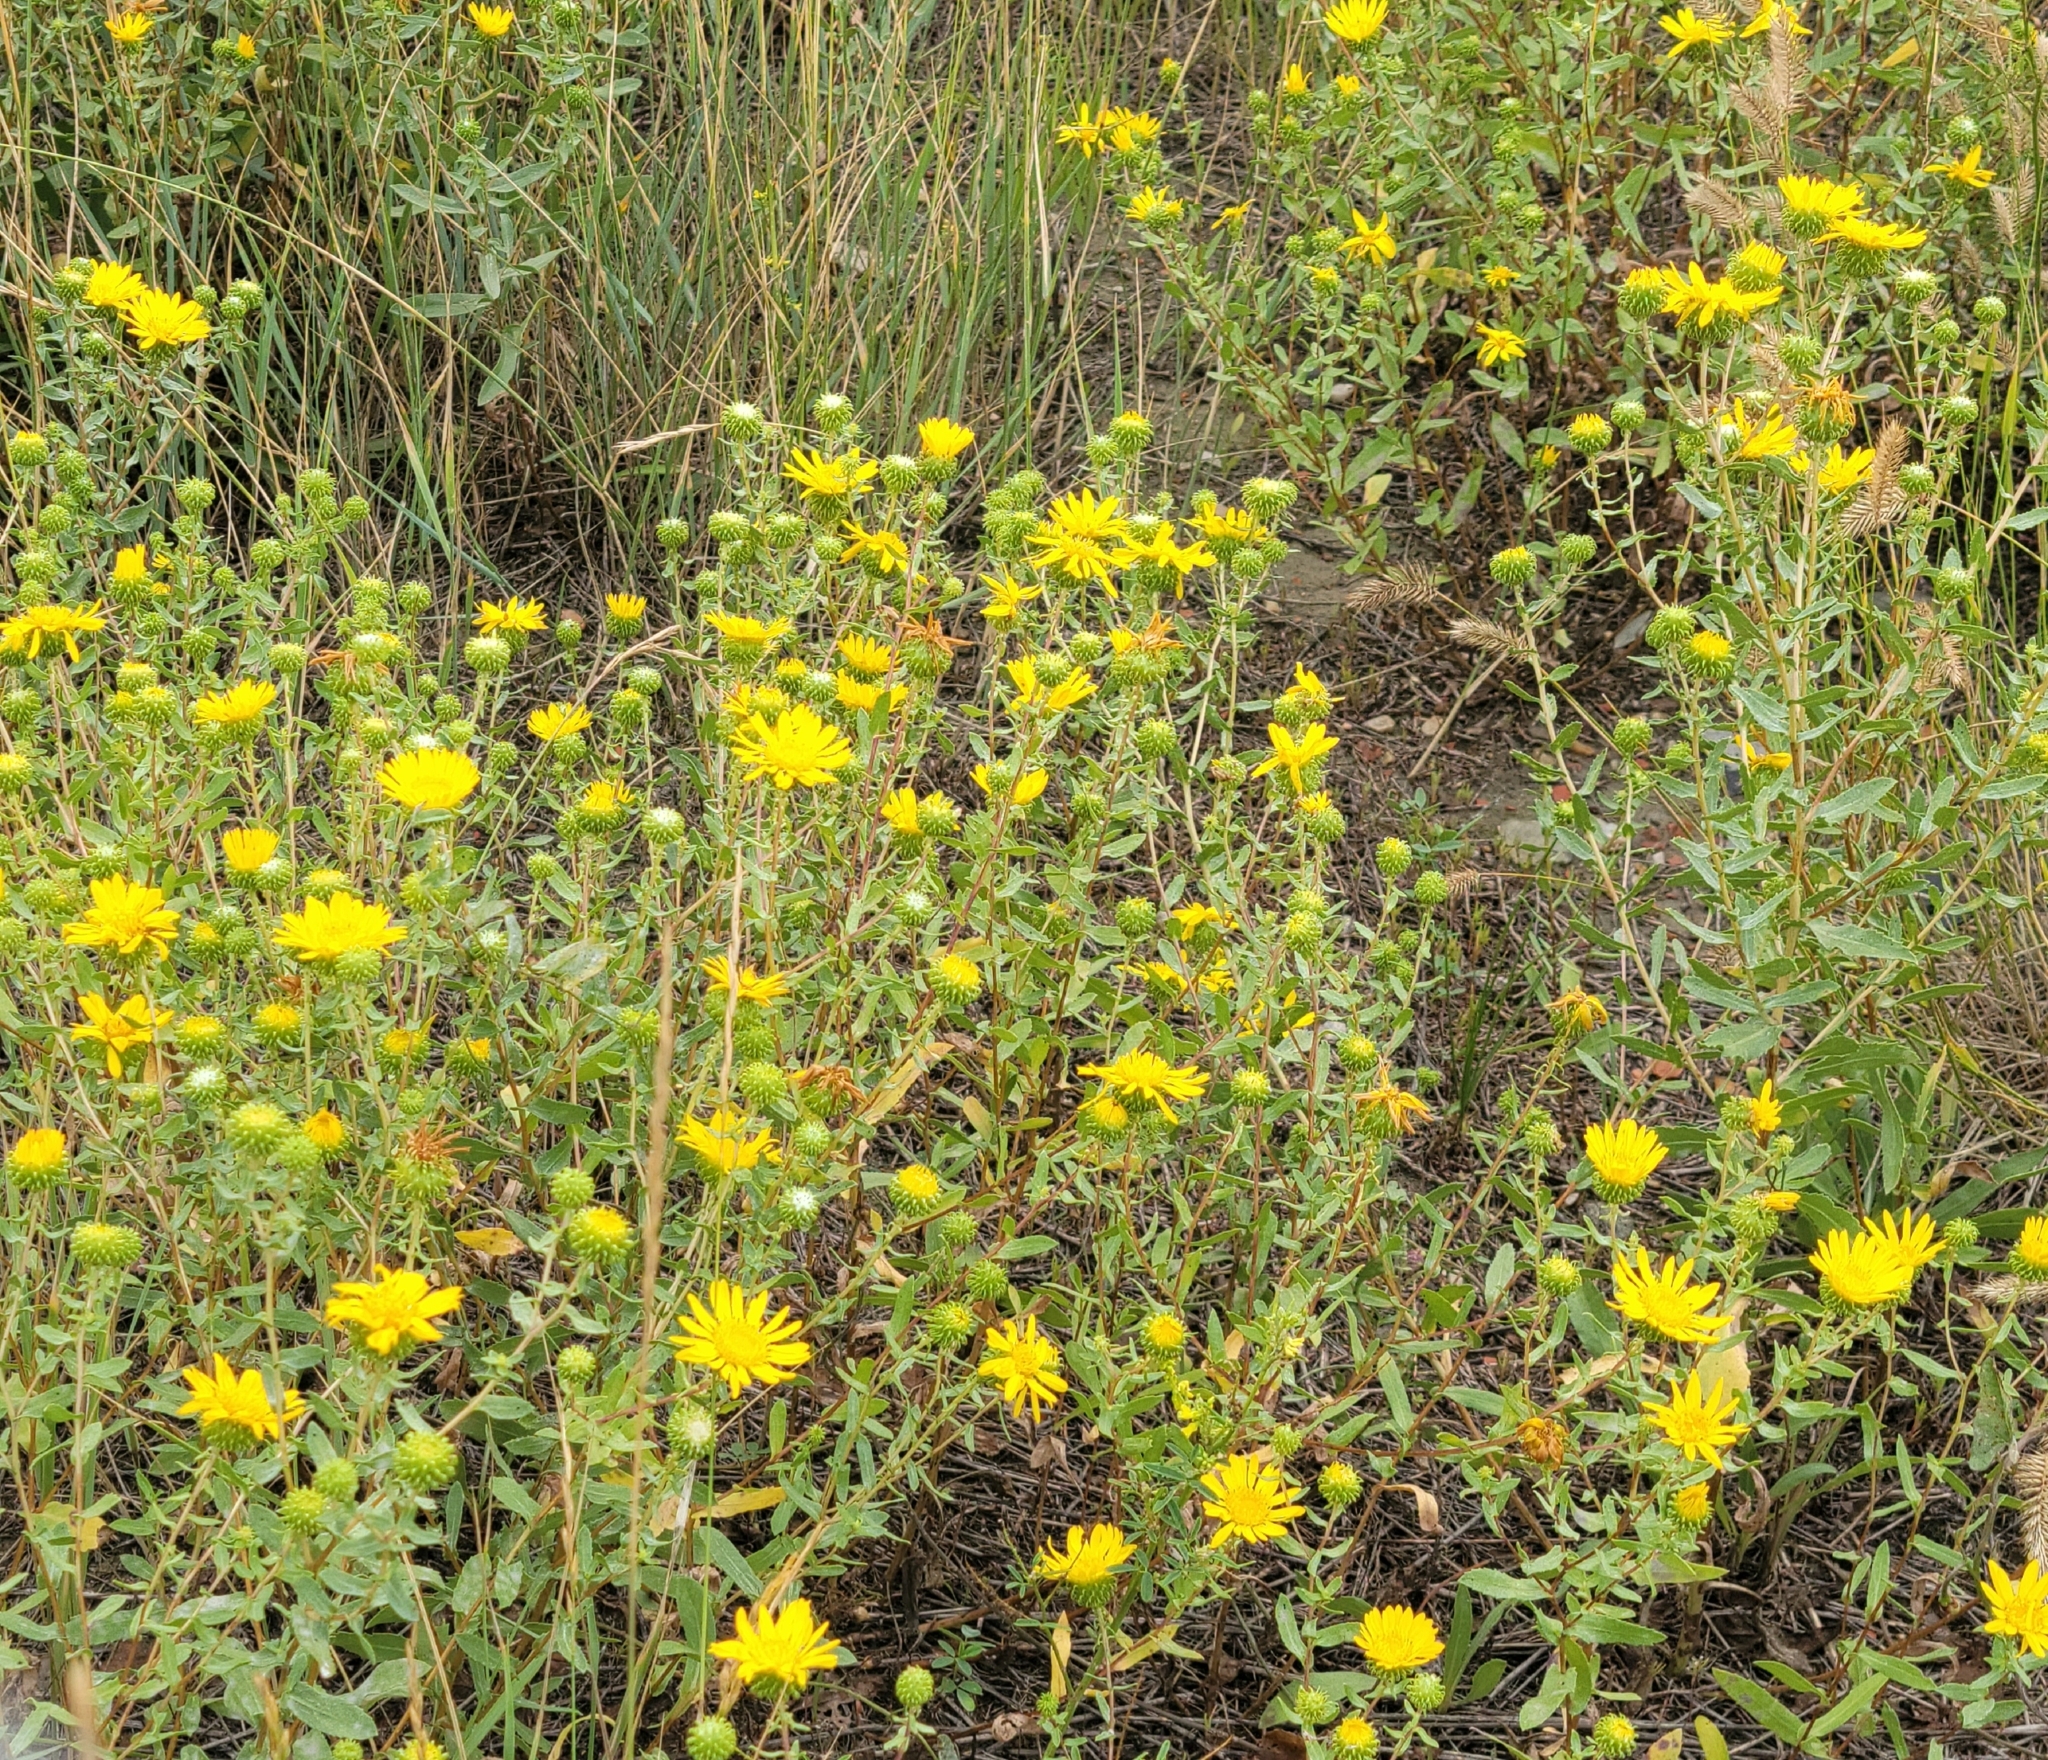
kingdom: Plantae
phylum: Tracheophyta
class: Magnoliopsida
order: Asterales
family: Asteraceae
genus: Grindelia
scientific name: Grindelia squarrosa
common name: Curly-cup gumweed
